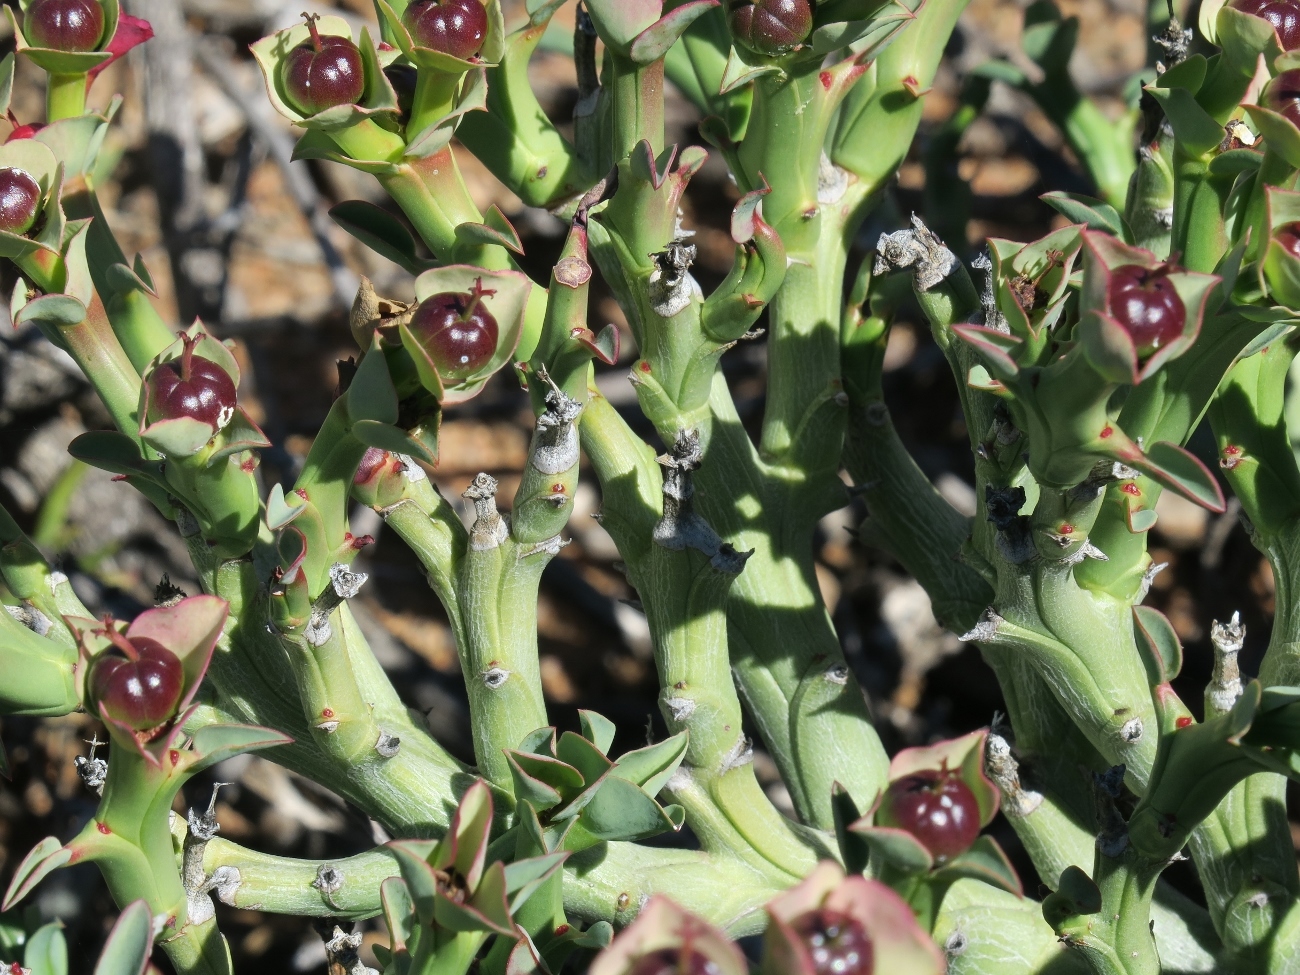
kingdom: Plantae
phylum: Tracheophyta
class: Magnoliopsida
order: Malpighiales
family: Euphorbiaceae
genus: Euphorbia
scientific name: Euphorbia hamata
